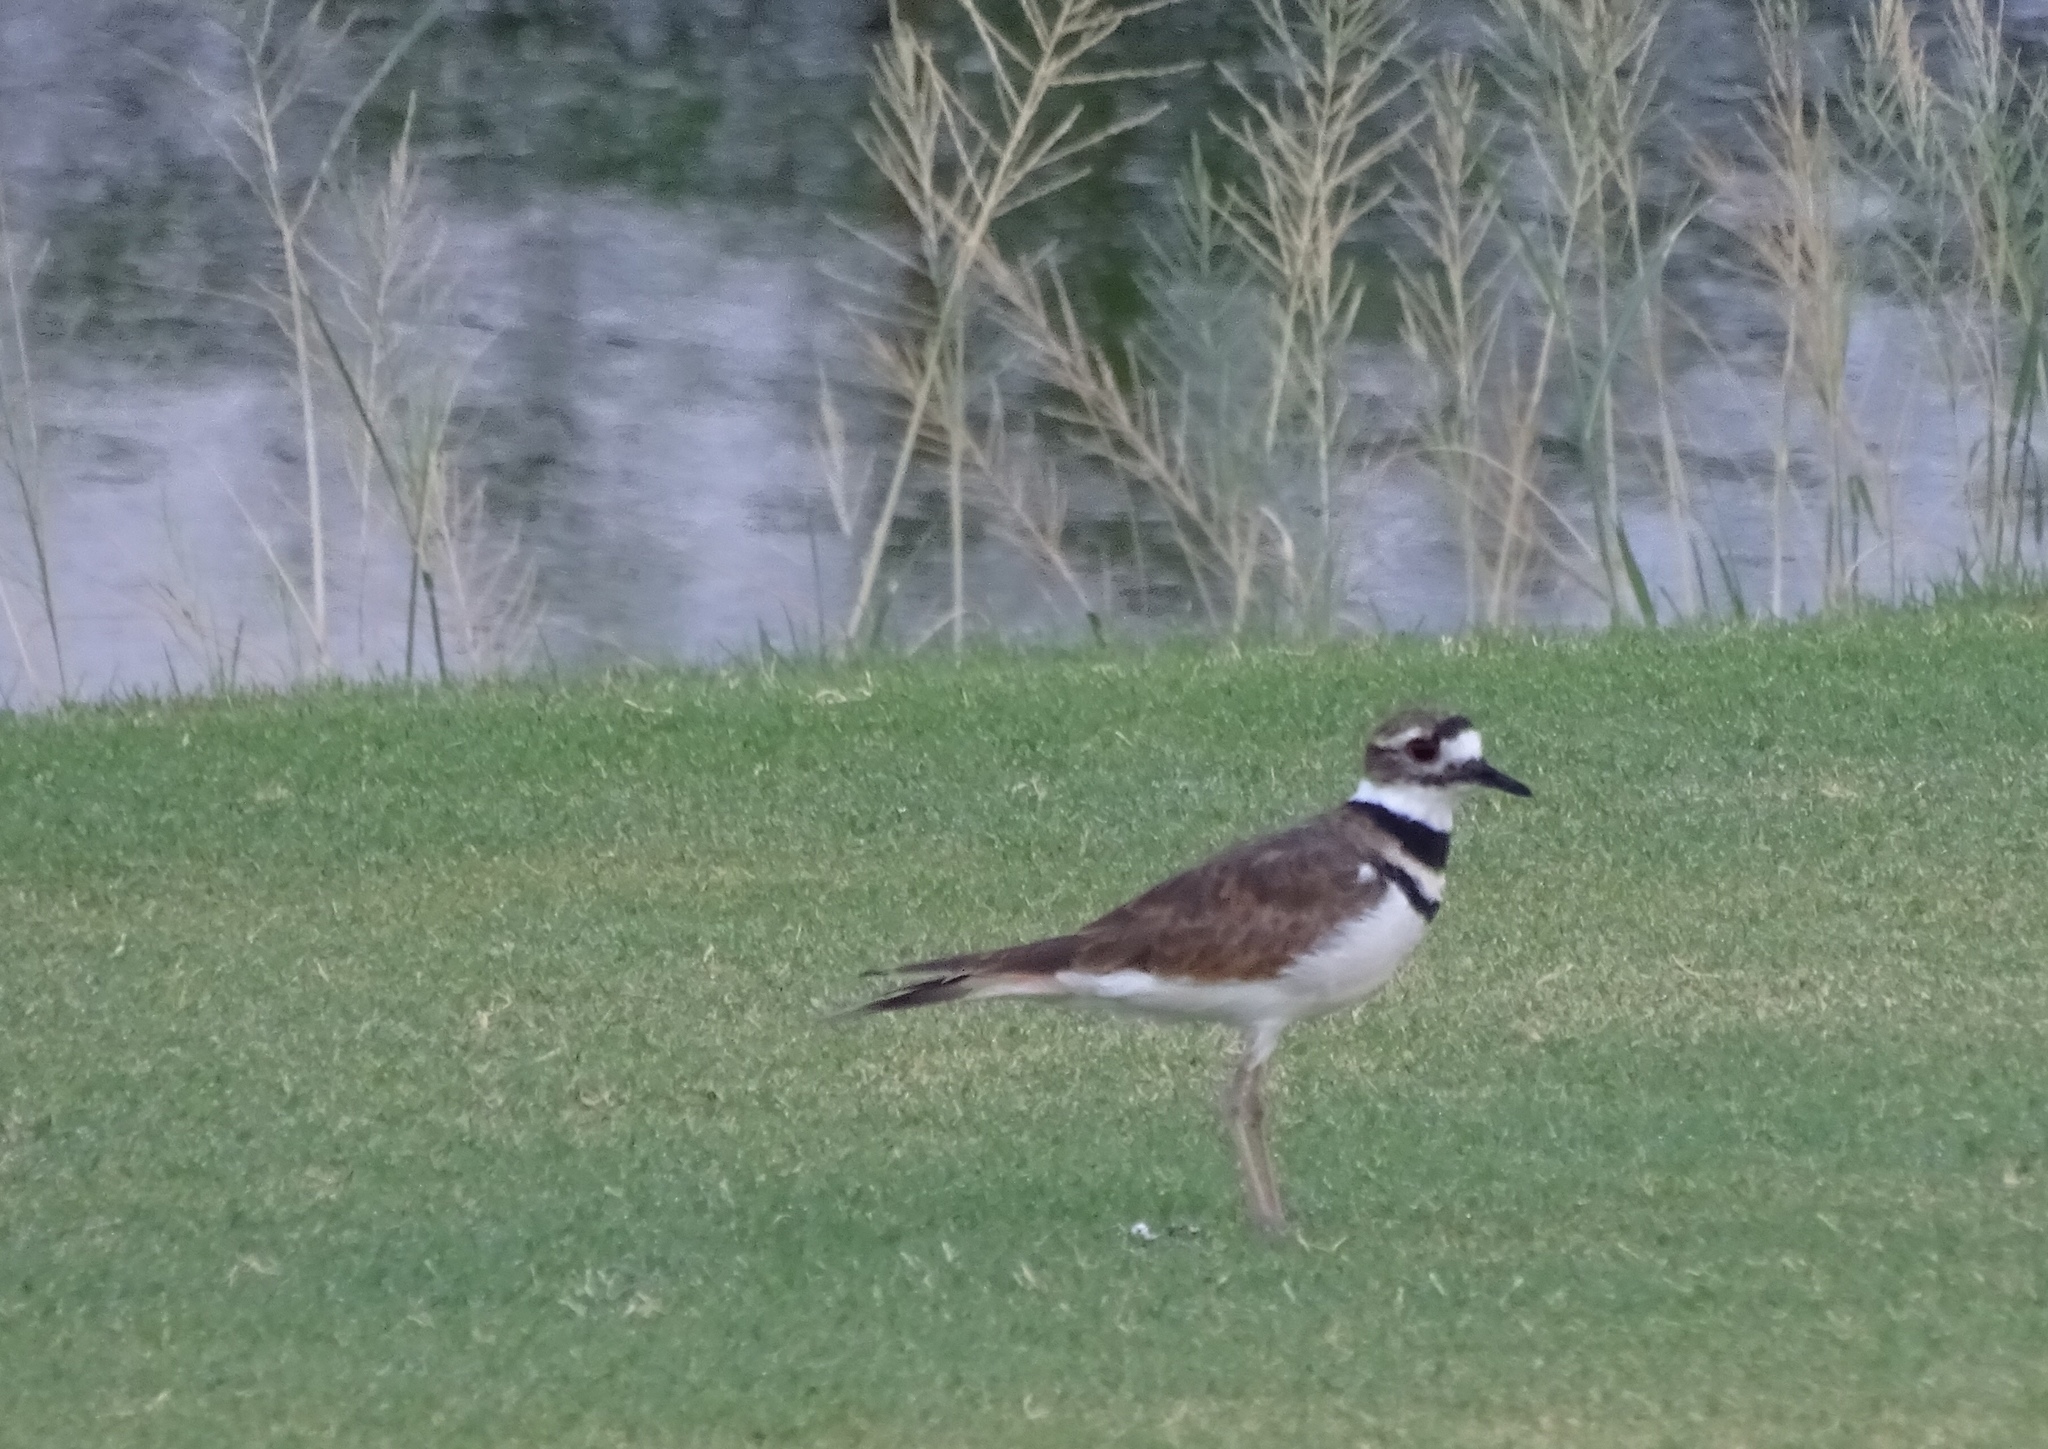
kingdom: Animalia
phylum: Chordata
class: Aves
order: Charadriiformes
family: Charadriidae
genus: Charadrius
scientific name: Charadrius vociferus
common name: Killdeer
